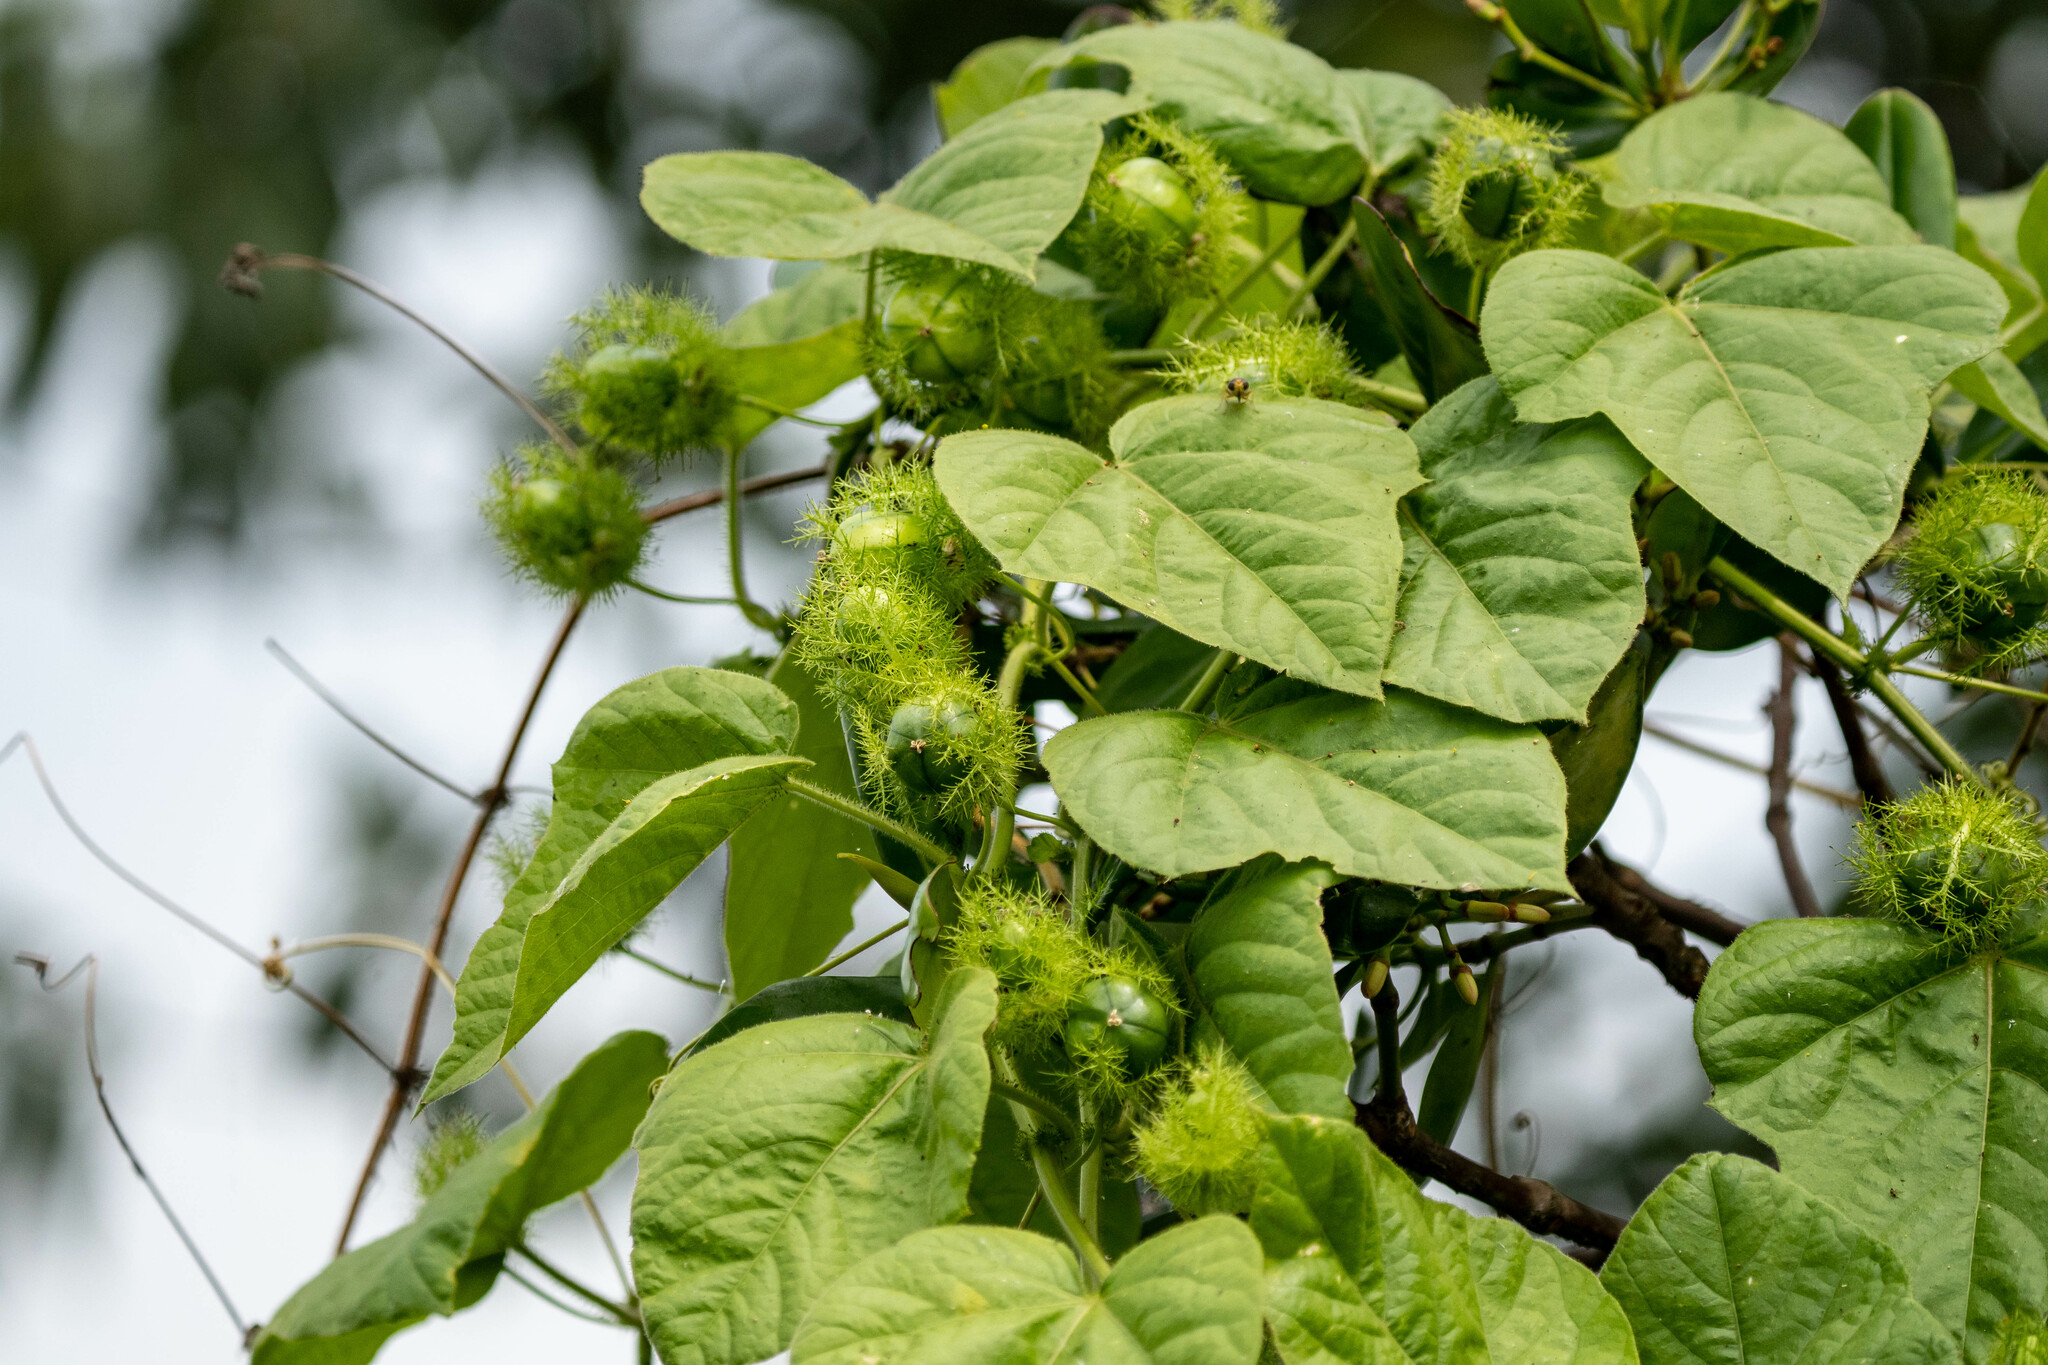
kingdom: Plantae
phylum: Tracheophyta
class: Magnoliopsida
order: Malpighiales
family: Passifloraceae
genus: Passiflora
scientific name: Passiflora vesicaria
